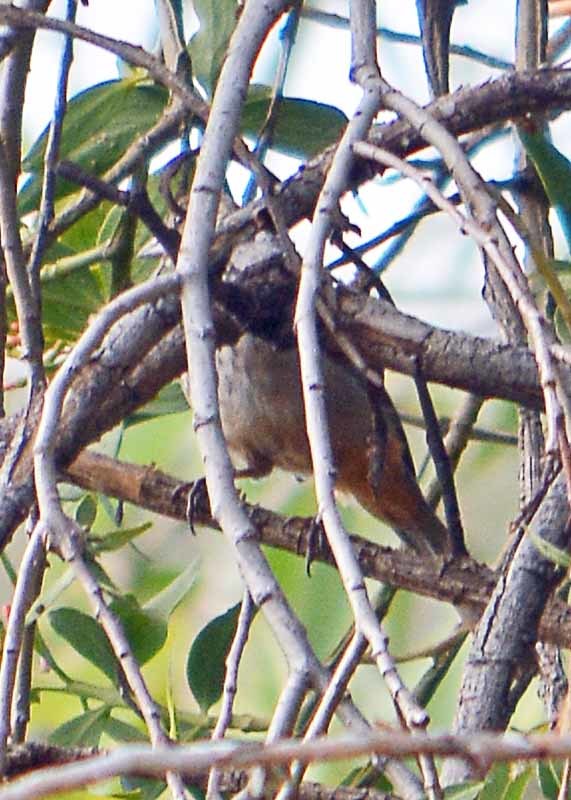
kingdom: Animalia
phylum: Chordata
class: Aves
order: Passeriformes
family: Passerellidae
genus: Melozone
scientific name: Melozone fusca
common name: Canyon towhee
